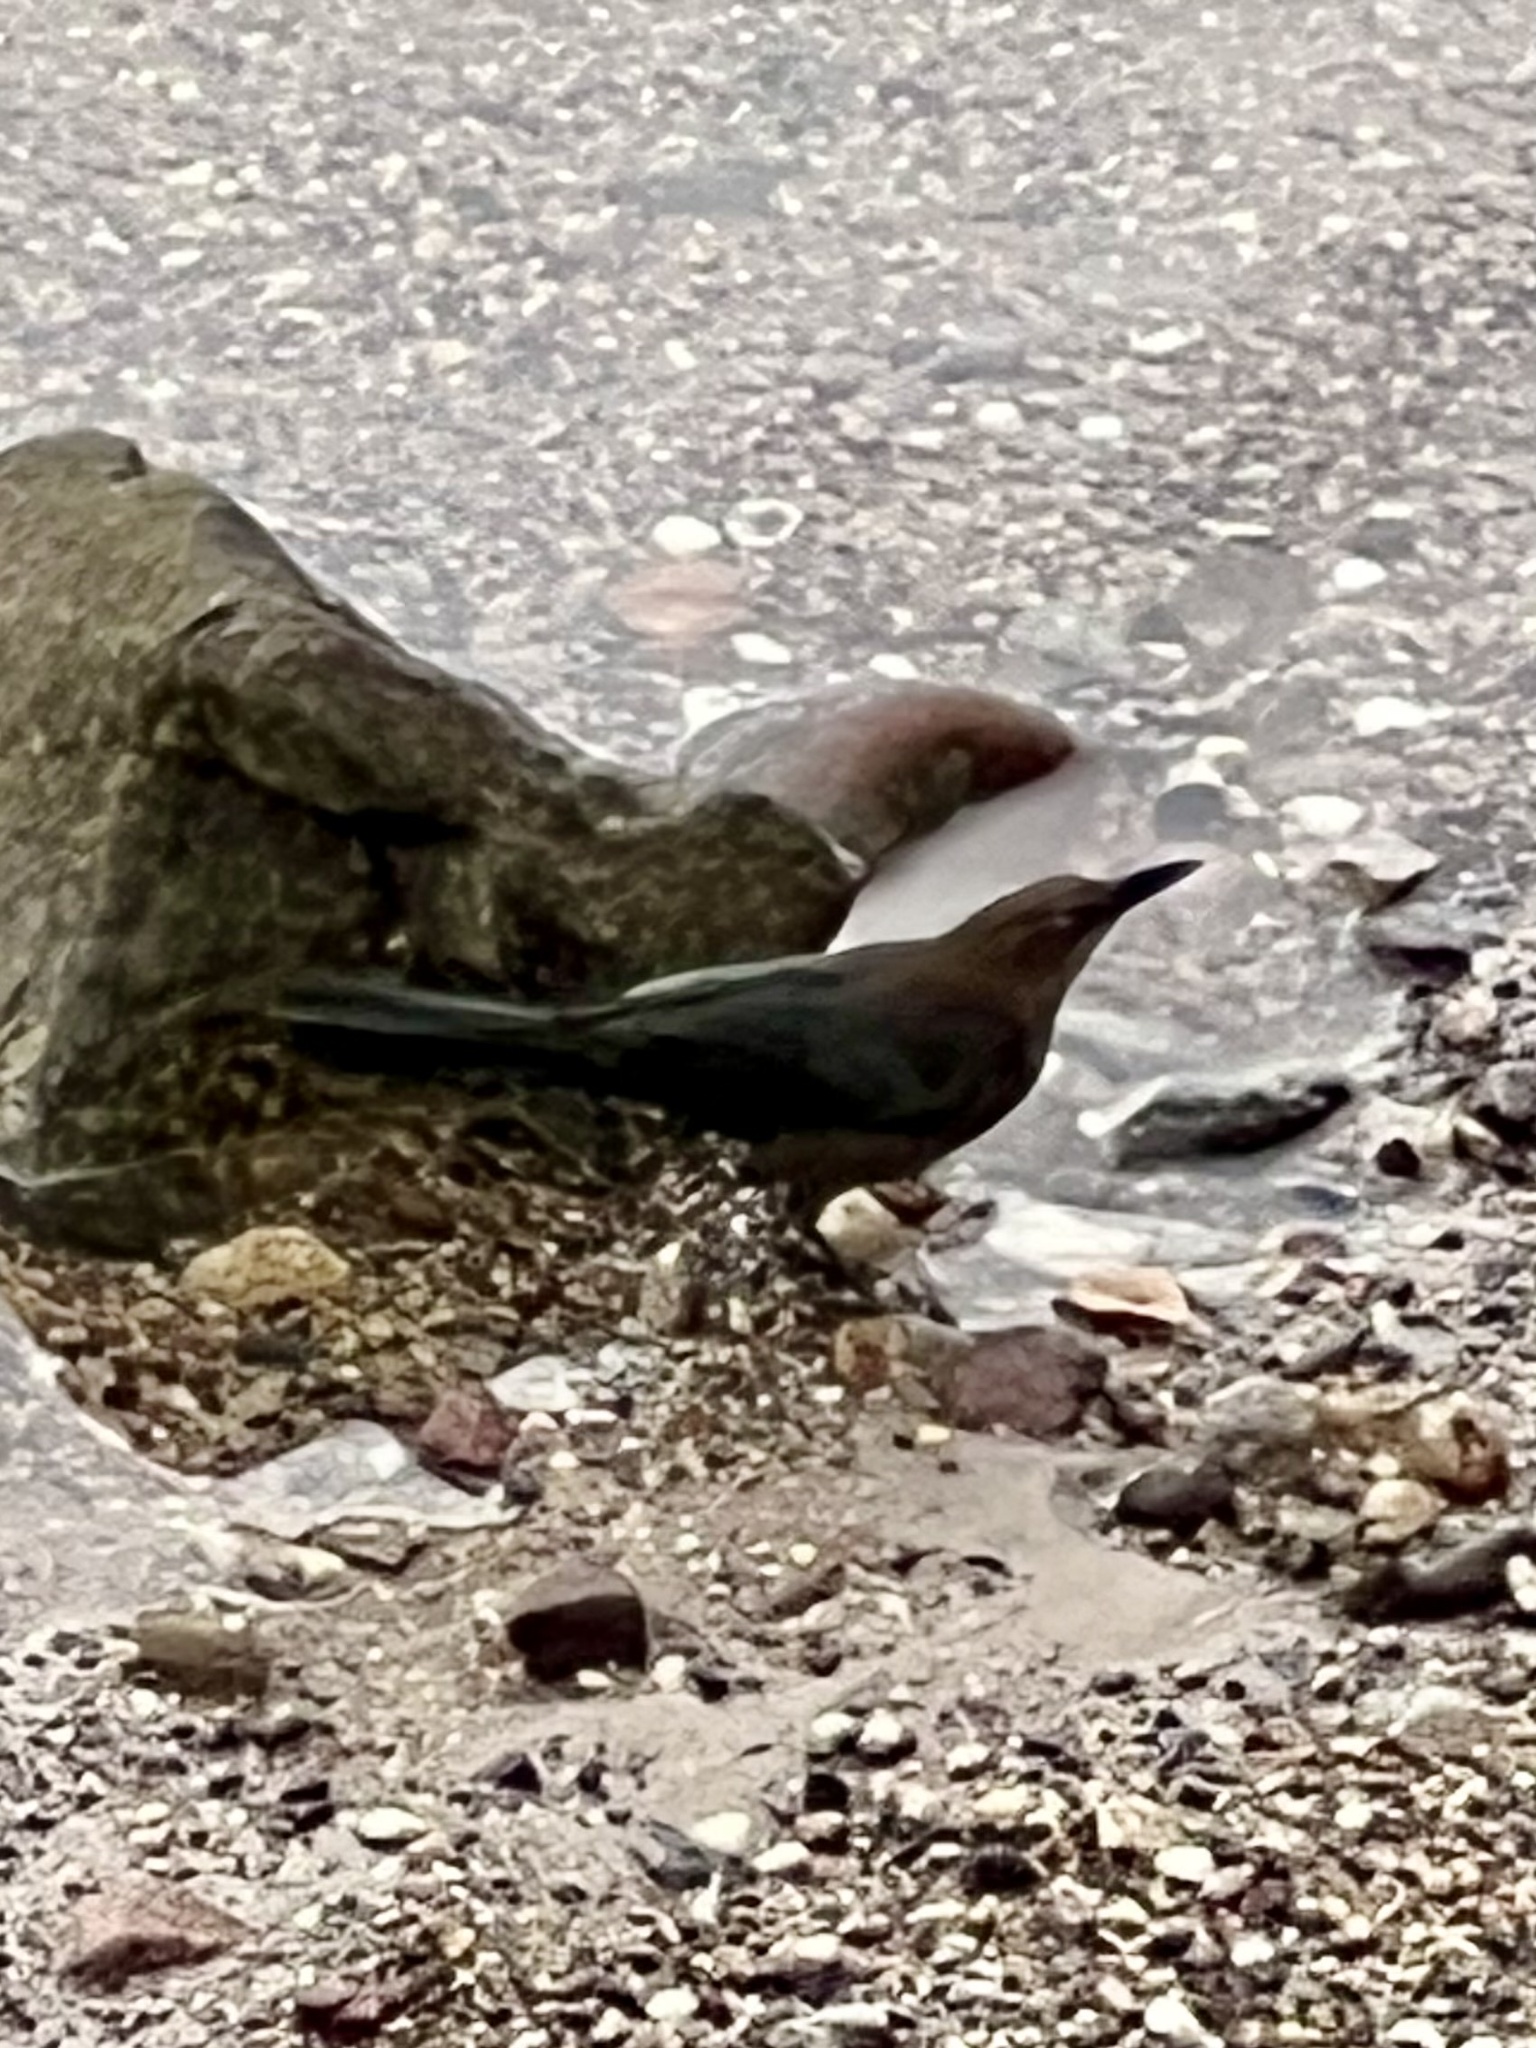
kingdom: Animalia
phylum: Chordata
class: Aves
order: Passeriformes
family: Icteridae
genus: Quiscalus
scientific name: Quiscalus mexicanus
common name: Great-tailed grackle
